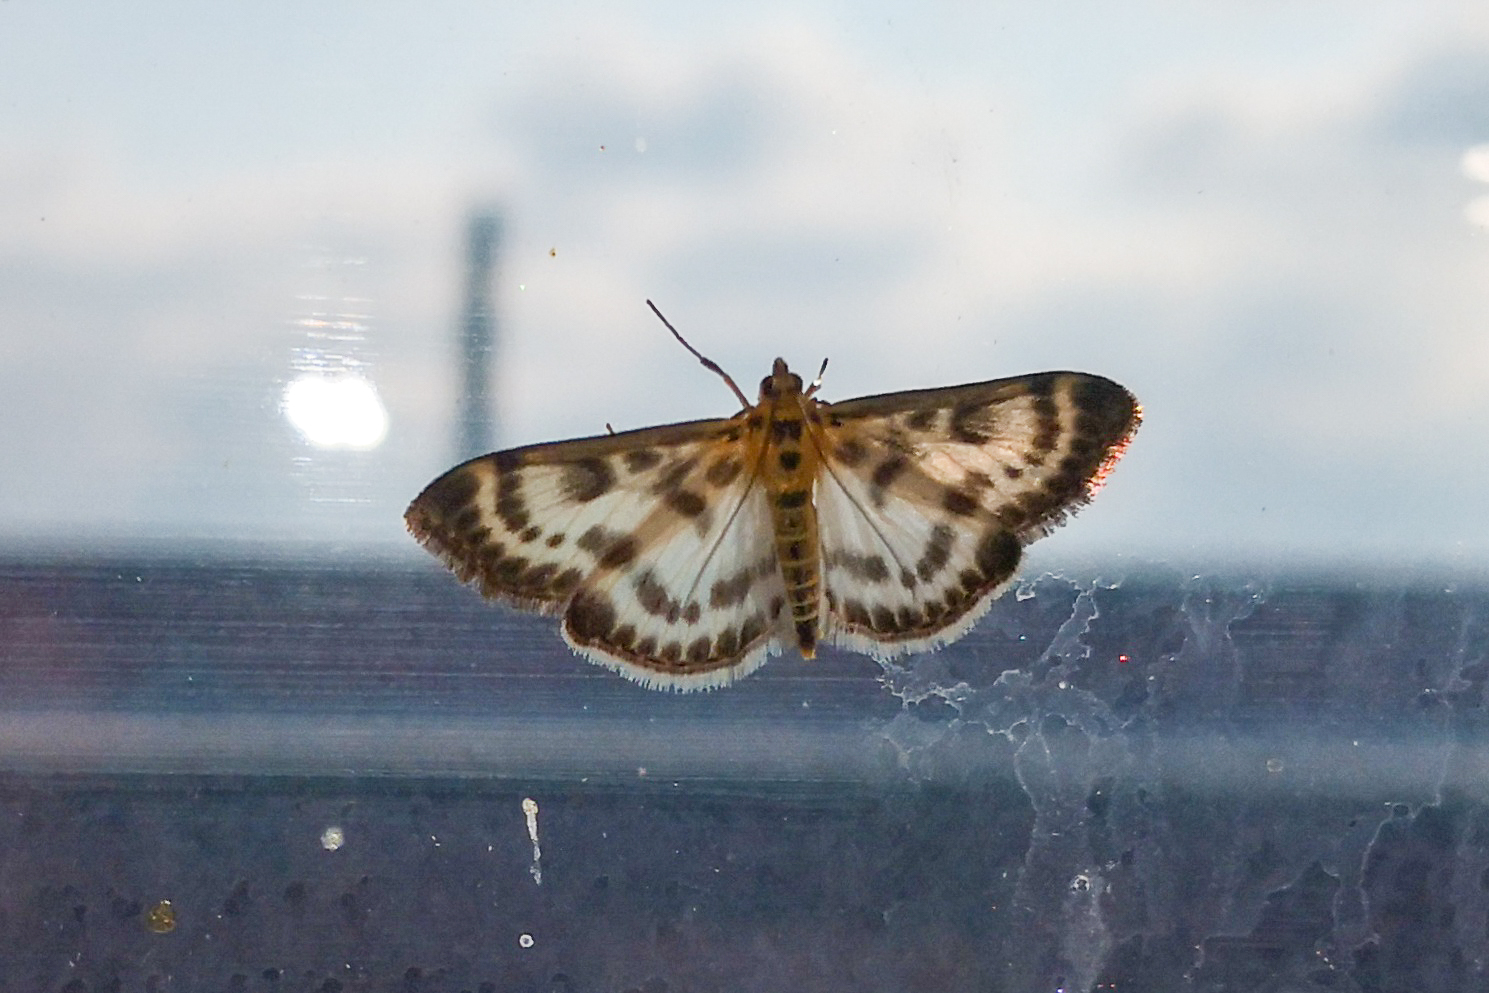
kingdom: Animalia
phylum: Arthropoda
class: Insecta
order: Lepidoptera
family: Crambidae
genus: Anania
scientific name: Anania hortulata
